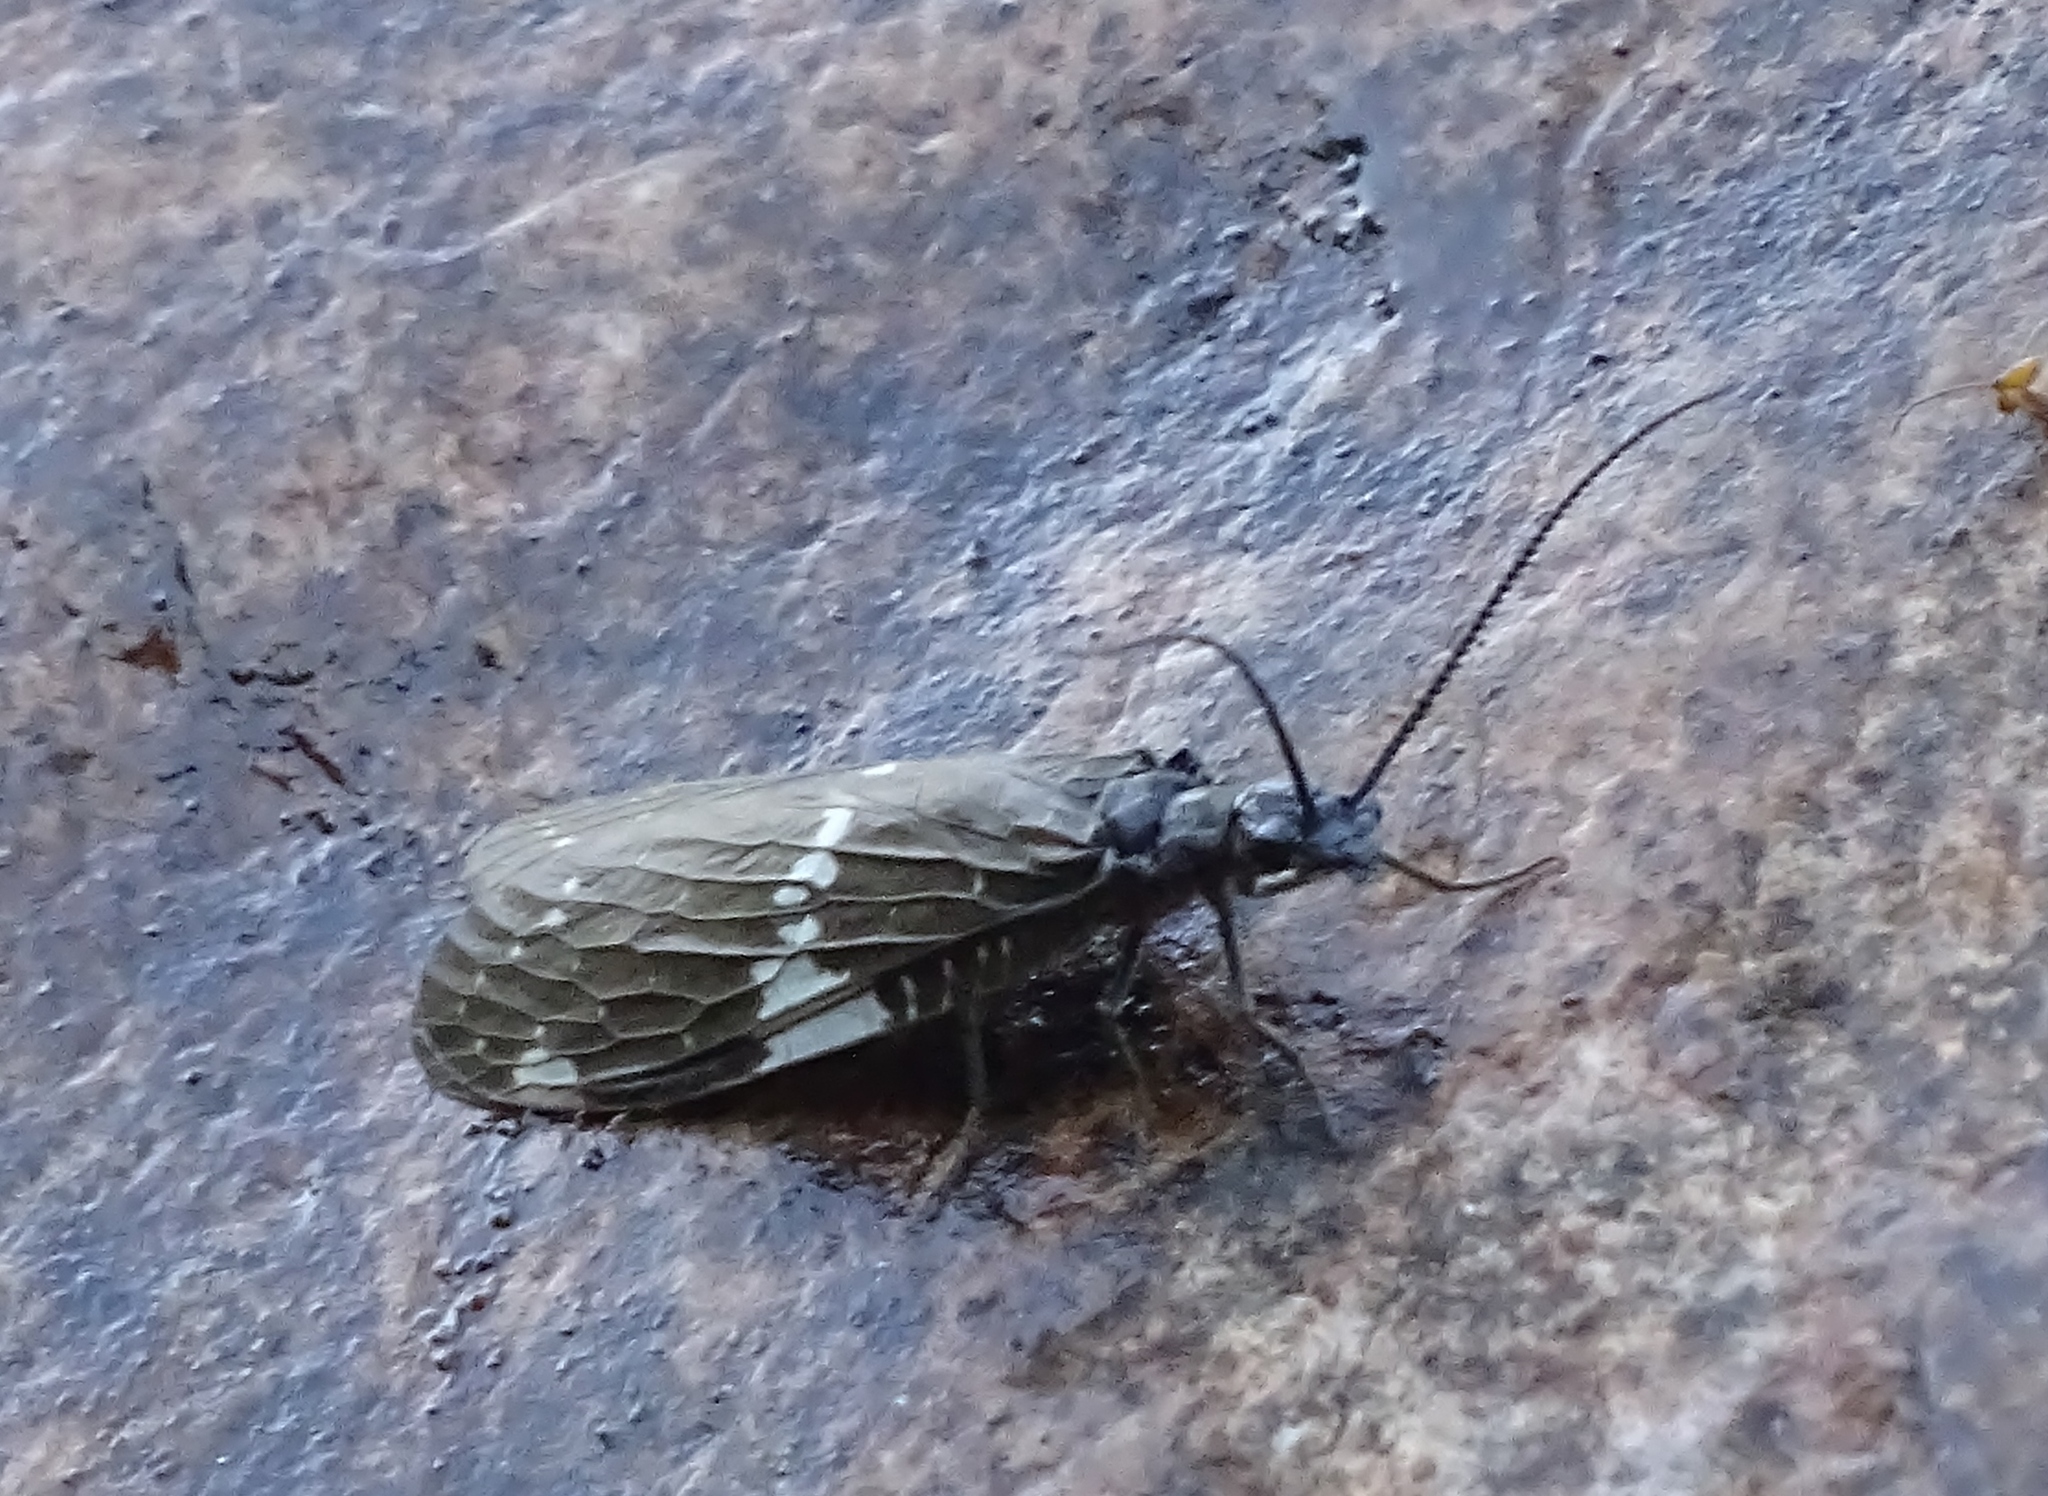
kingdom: Animalia
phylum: Arthropoda
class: Insecta
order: Megaloptera
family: Corydalidae
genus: Nigronia
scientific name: Nigronia serricornis
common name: Serrate dark fishfly
